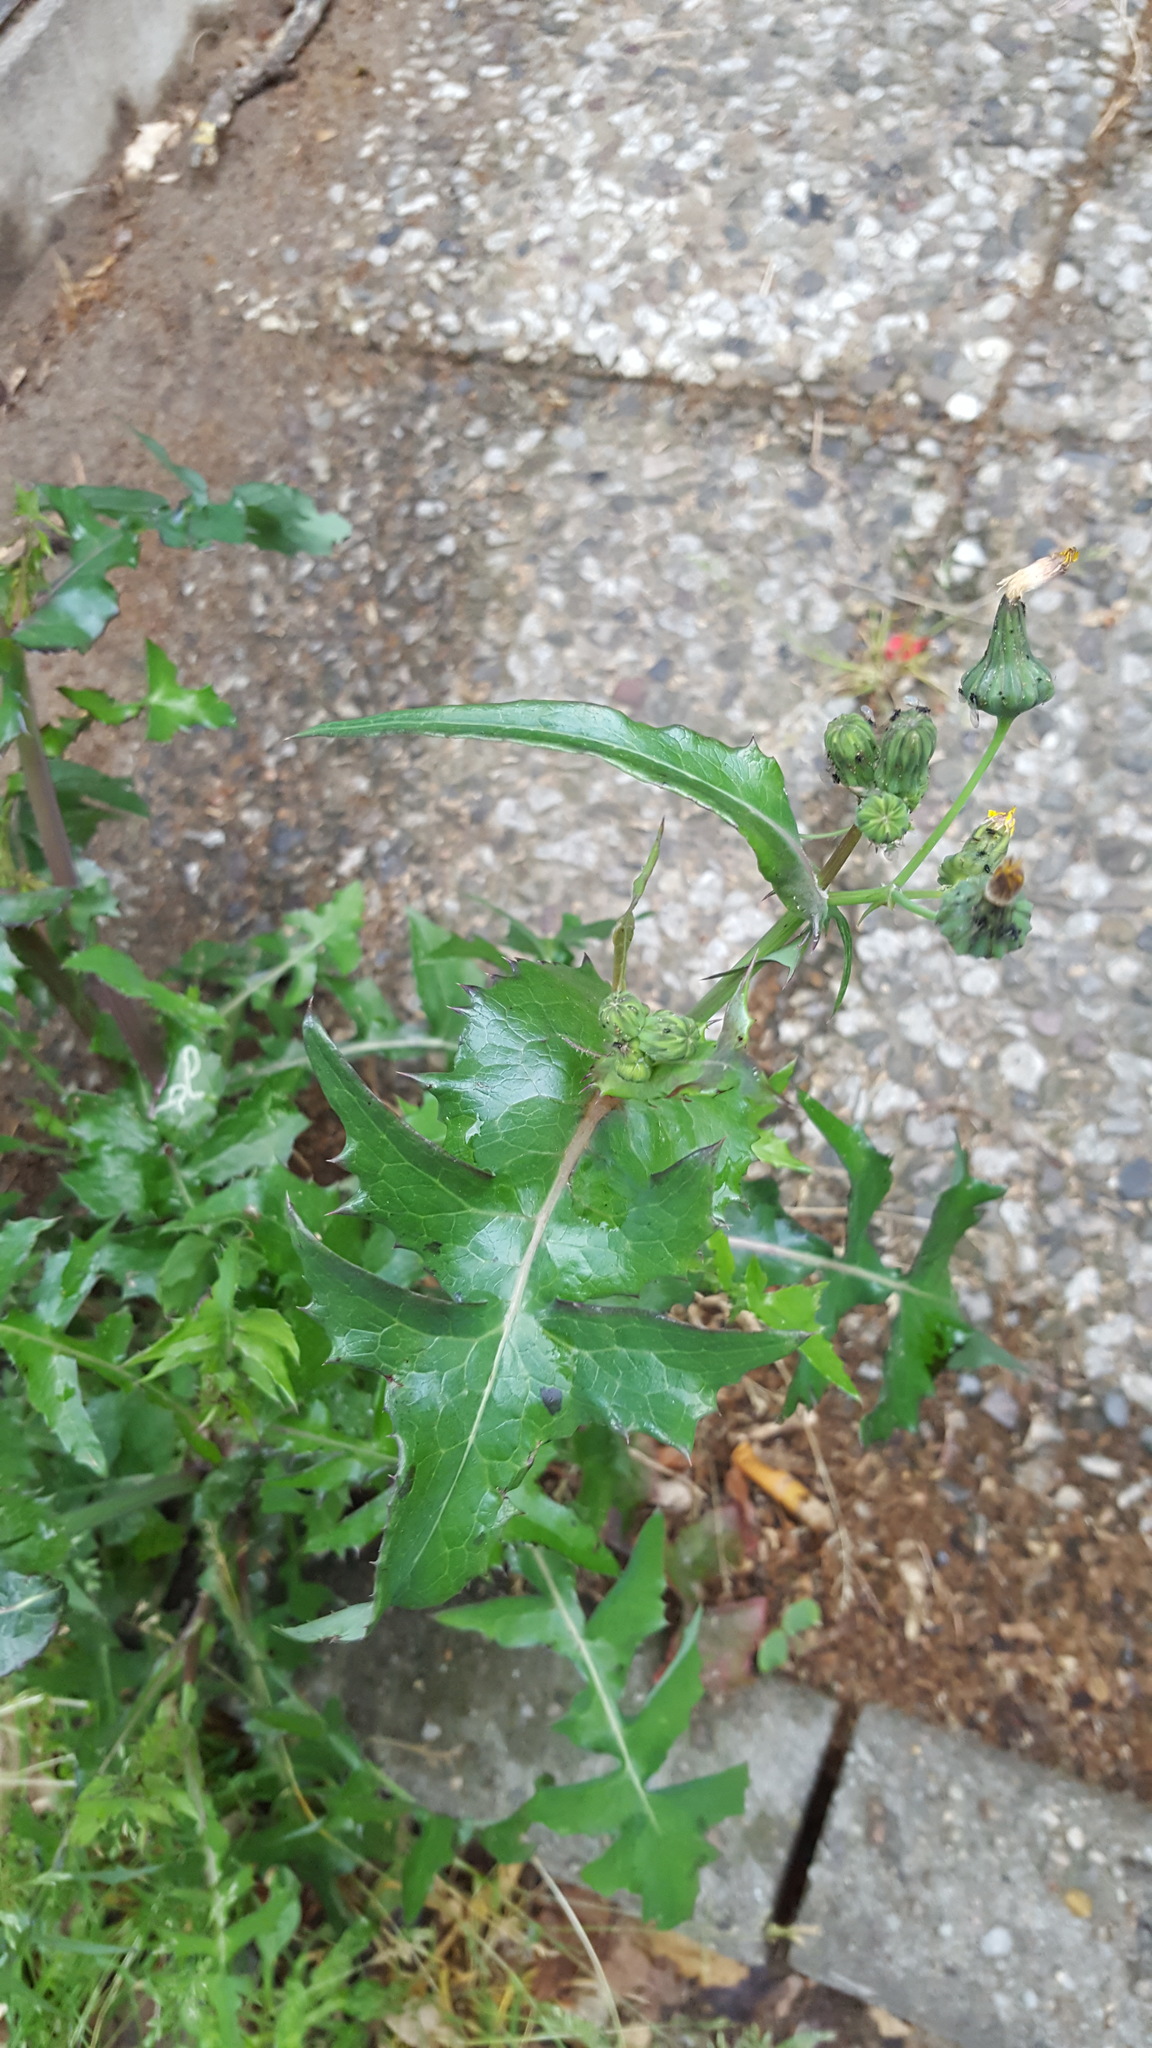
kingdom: Plantae
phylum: Tracheophyta
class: Magnoliopsida
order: Asterales
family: Asteraceae
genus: Sonchus
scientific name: Sonchus oleraceus
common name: Common sowthistle
